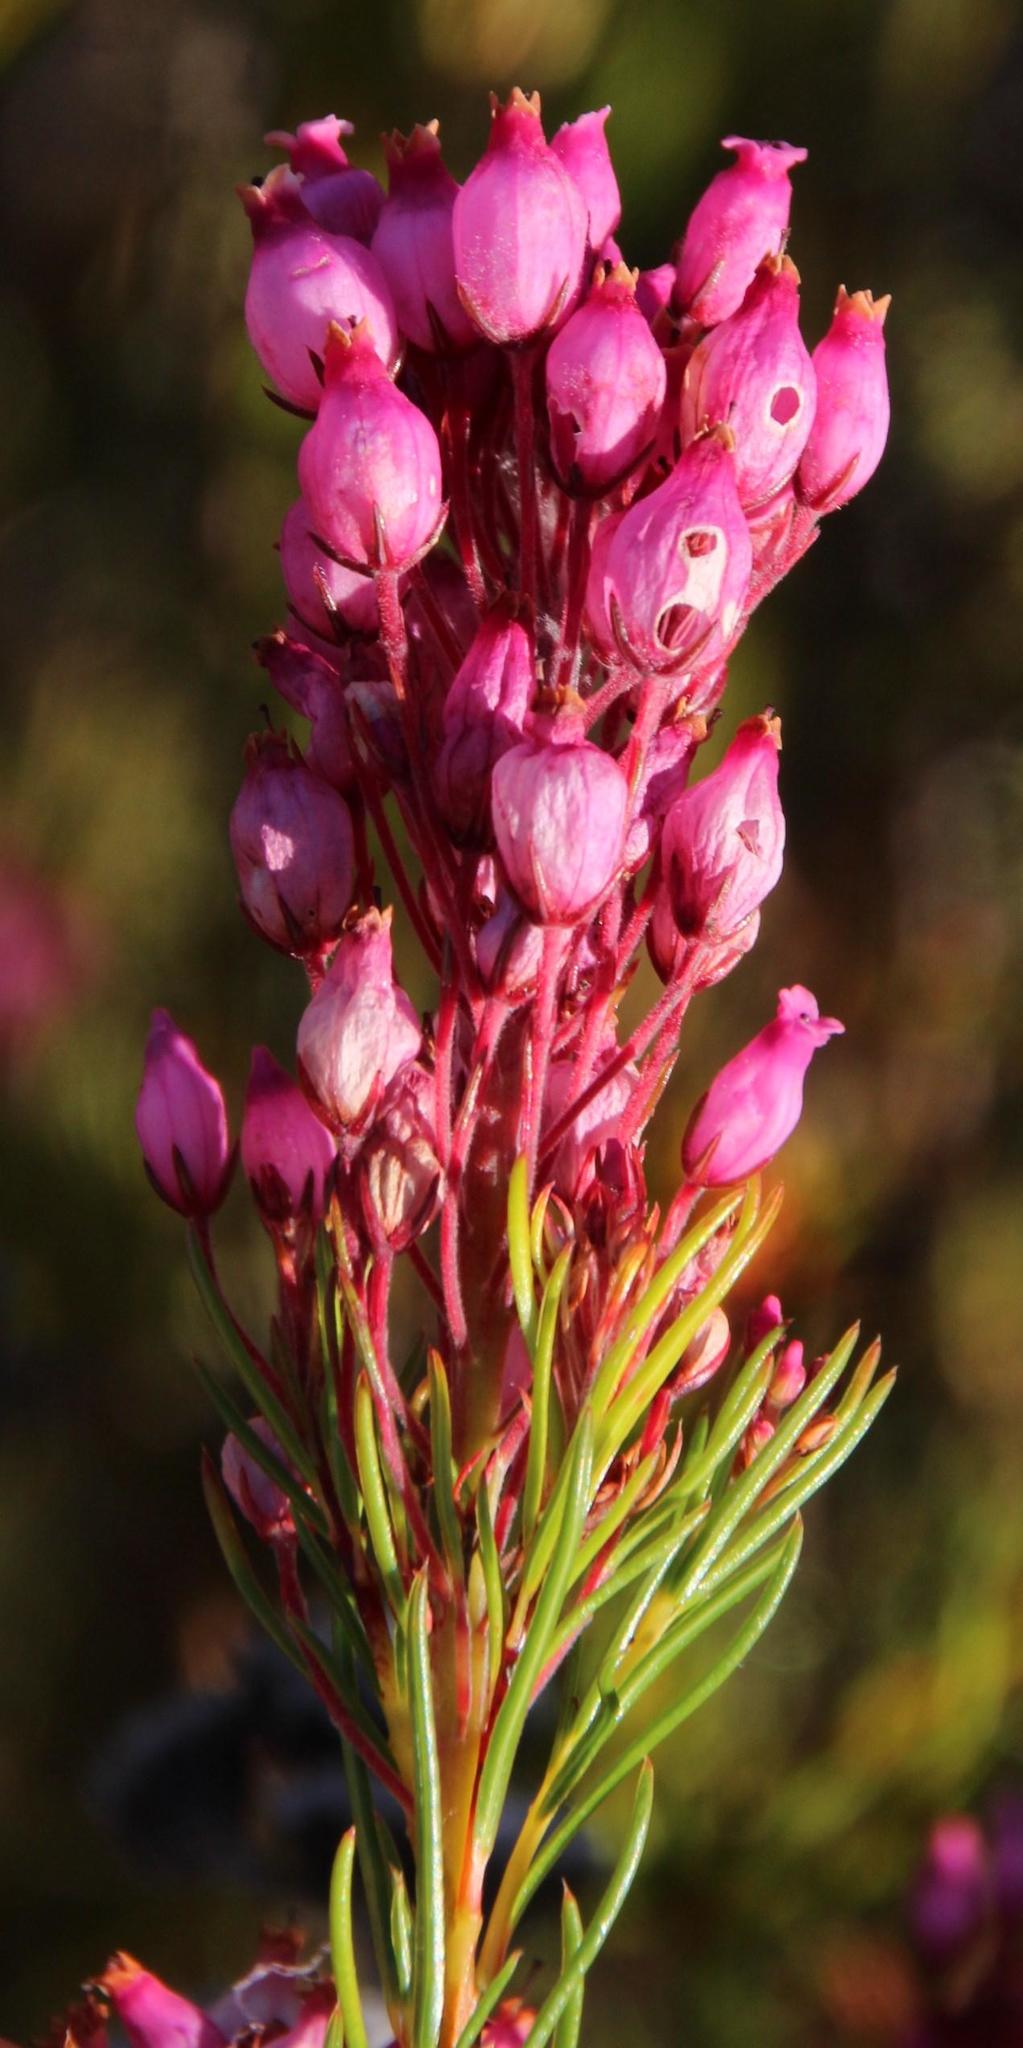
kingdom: Plantae
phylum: Tracheophyta
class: Magnoliopsida
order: Ericales
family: Ericaceae
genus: Erica
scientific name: Erica inflata
